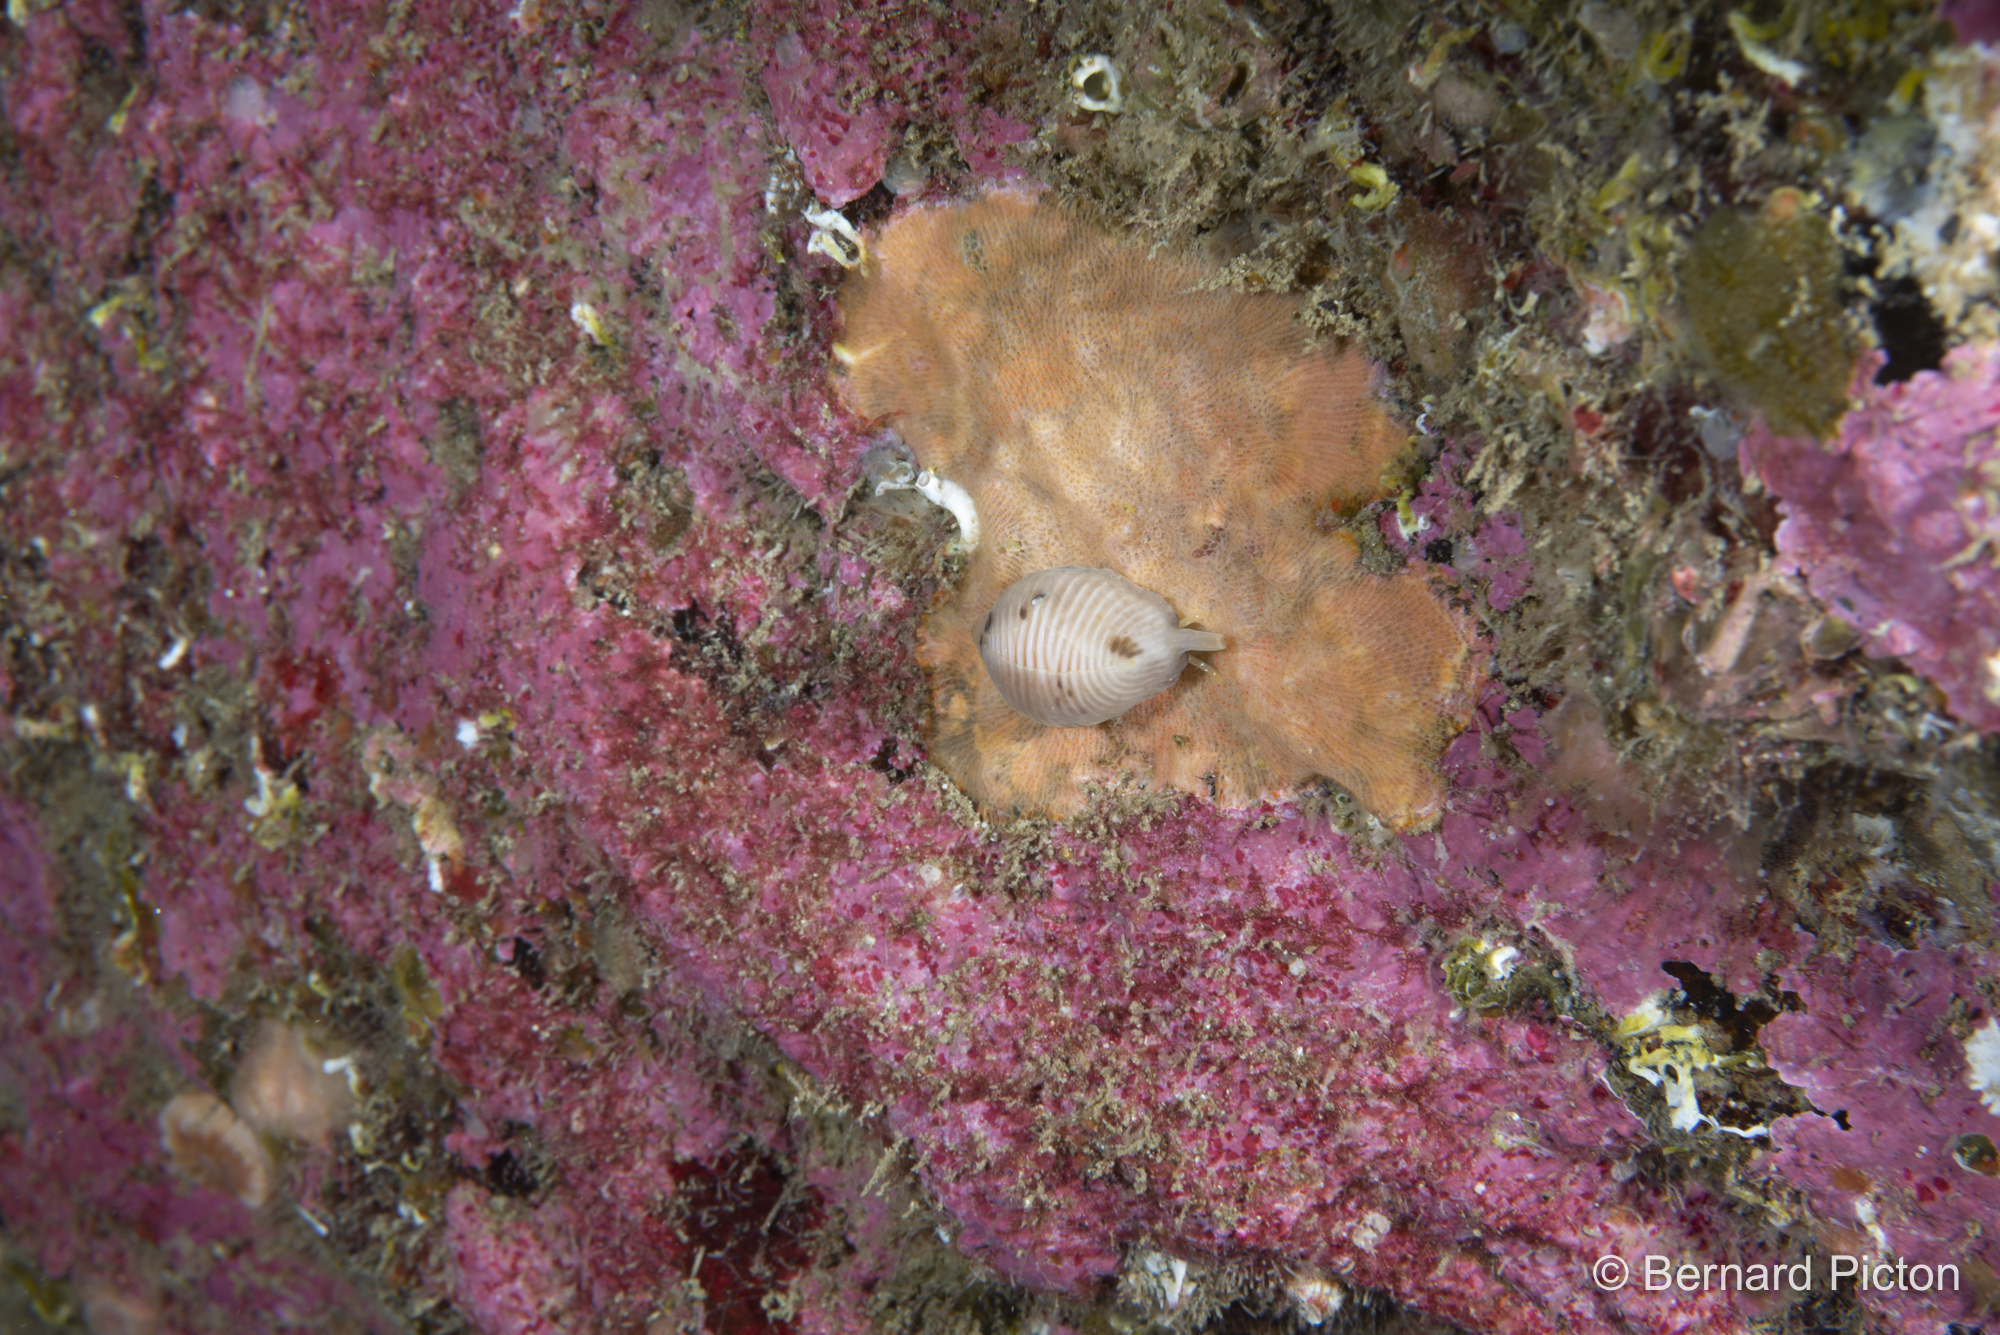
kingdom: Animalia
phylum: Mollusca
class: Gastropoda
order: Littorinimorpha
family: Triviidae
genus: Trivia
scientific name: Trivia arctica
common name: Arctic cowrie
